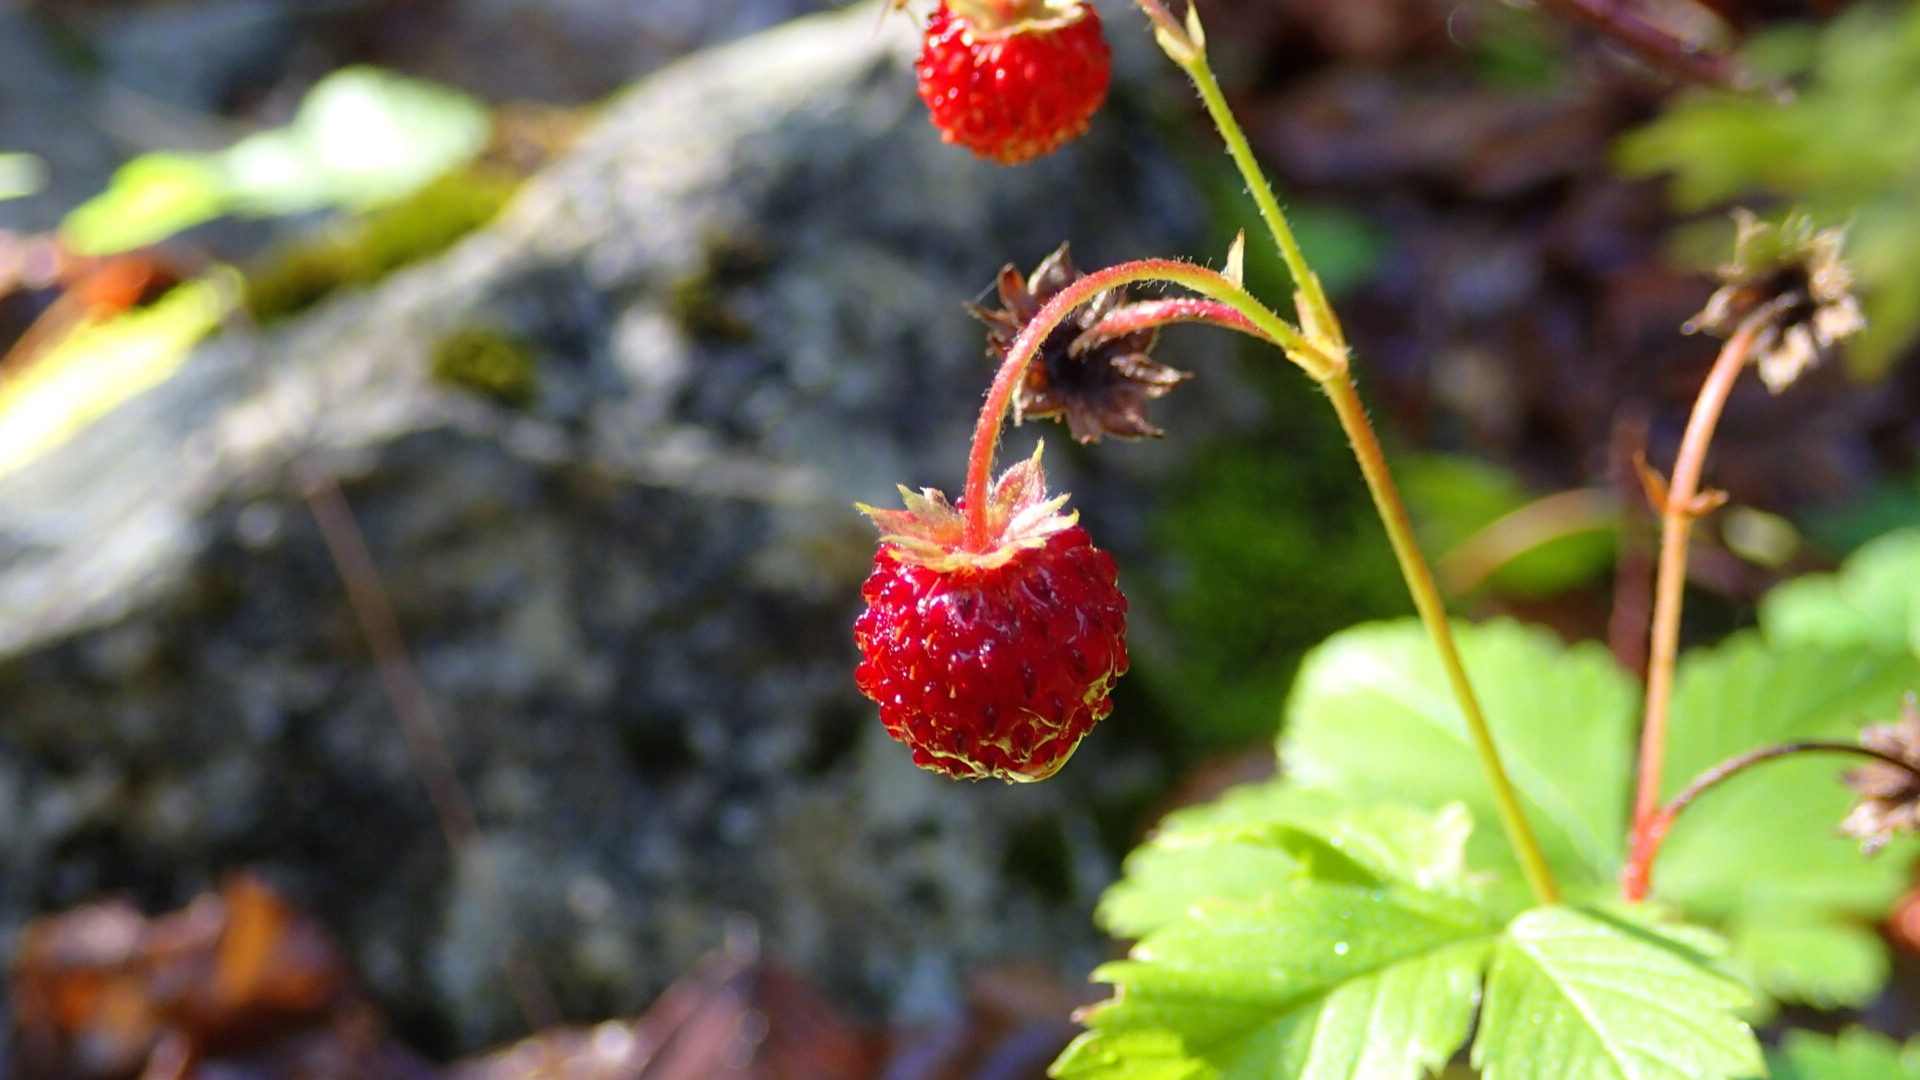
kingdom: Plantae
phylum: Tracheophyta
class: Magnoliopsida
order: Rosales
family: Rosaceae
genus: Fragaria
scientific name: Fragaria vesca
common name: Wild strawberry
